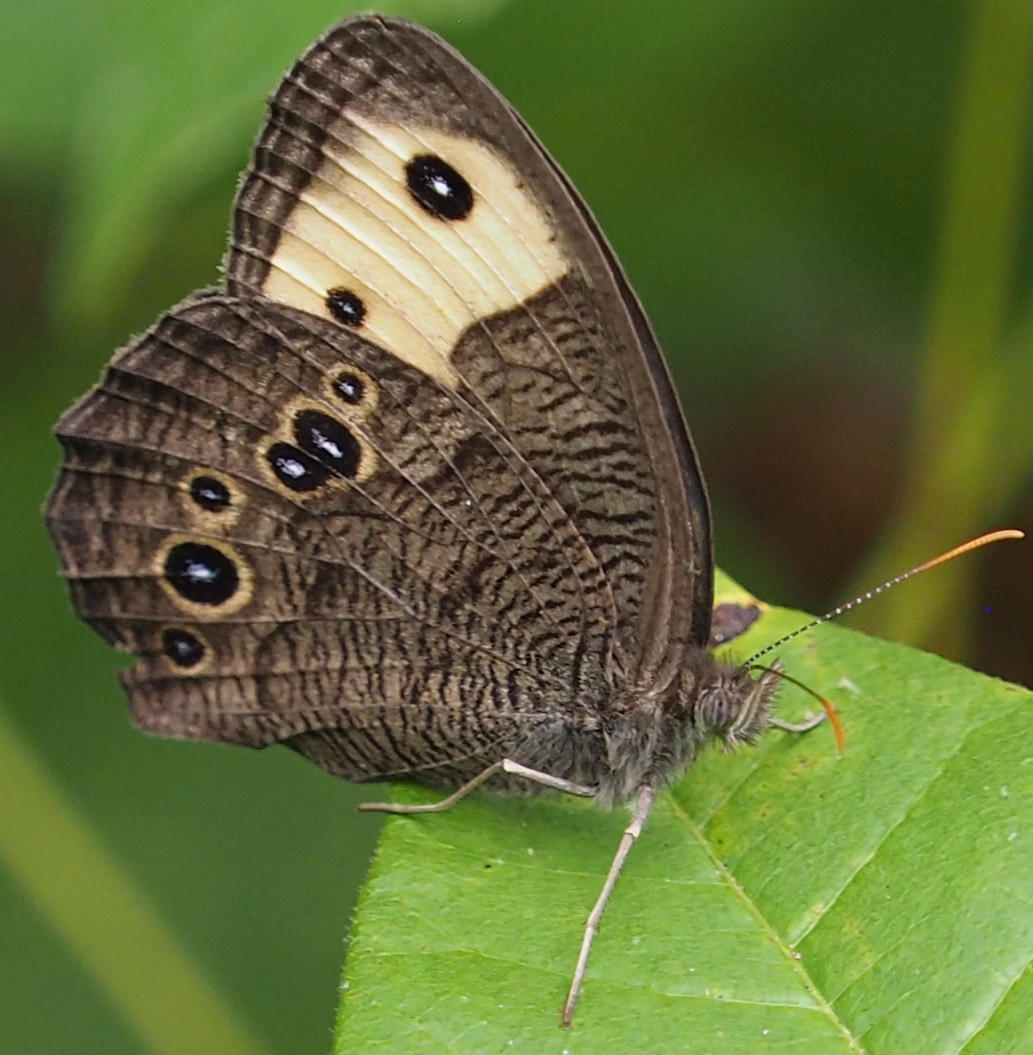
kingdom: Animalia
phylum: Arthropoda
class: Insecta
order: Lepidoptera
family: Nymphalidae
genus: Cercyonis
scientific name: Cercyonis pegala
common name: Common wood-nymph
